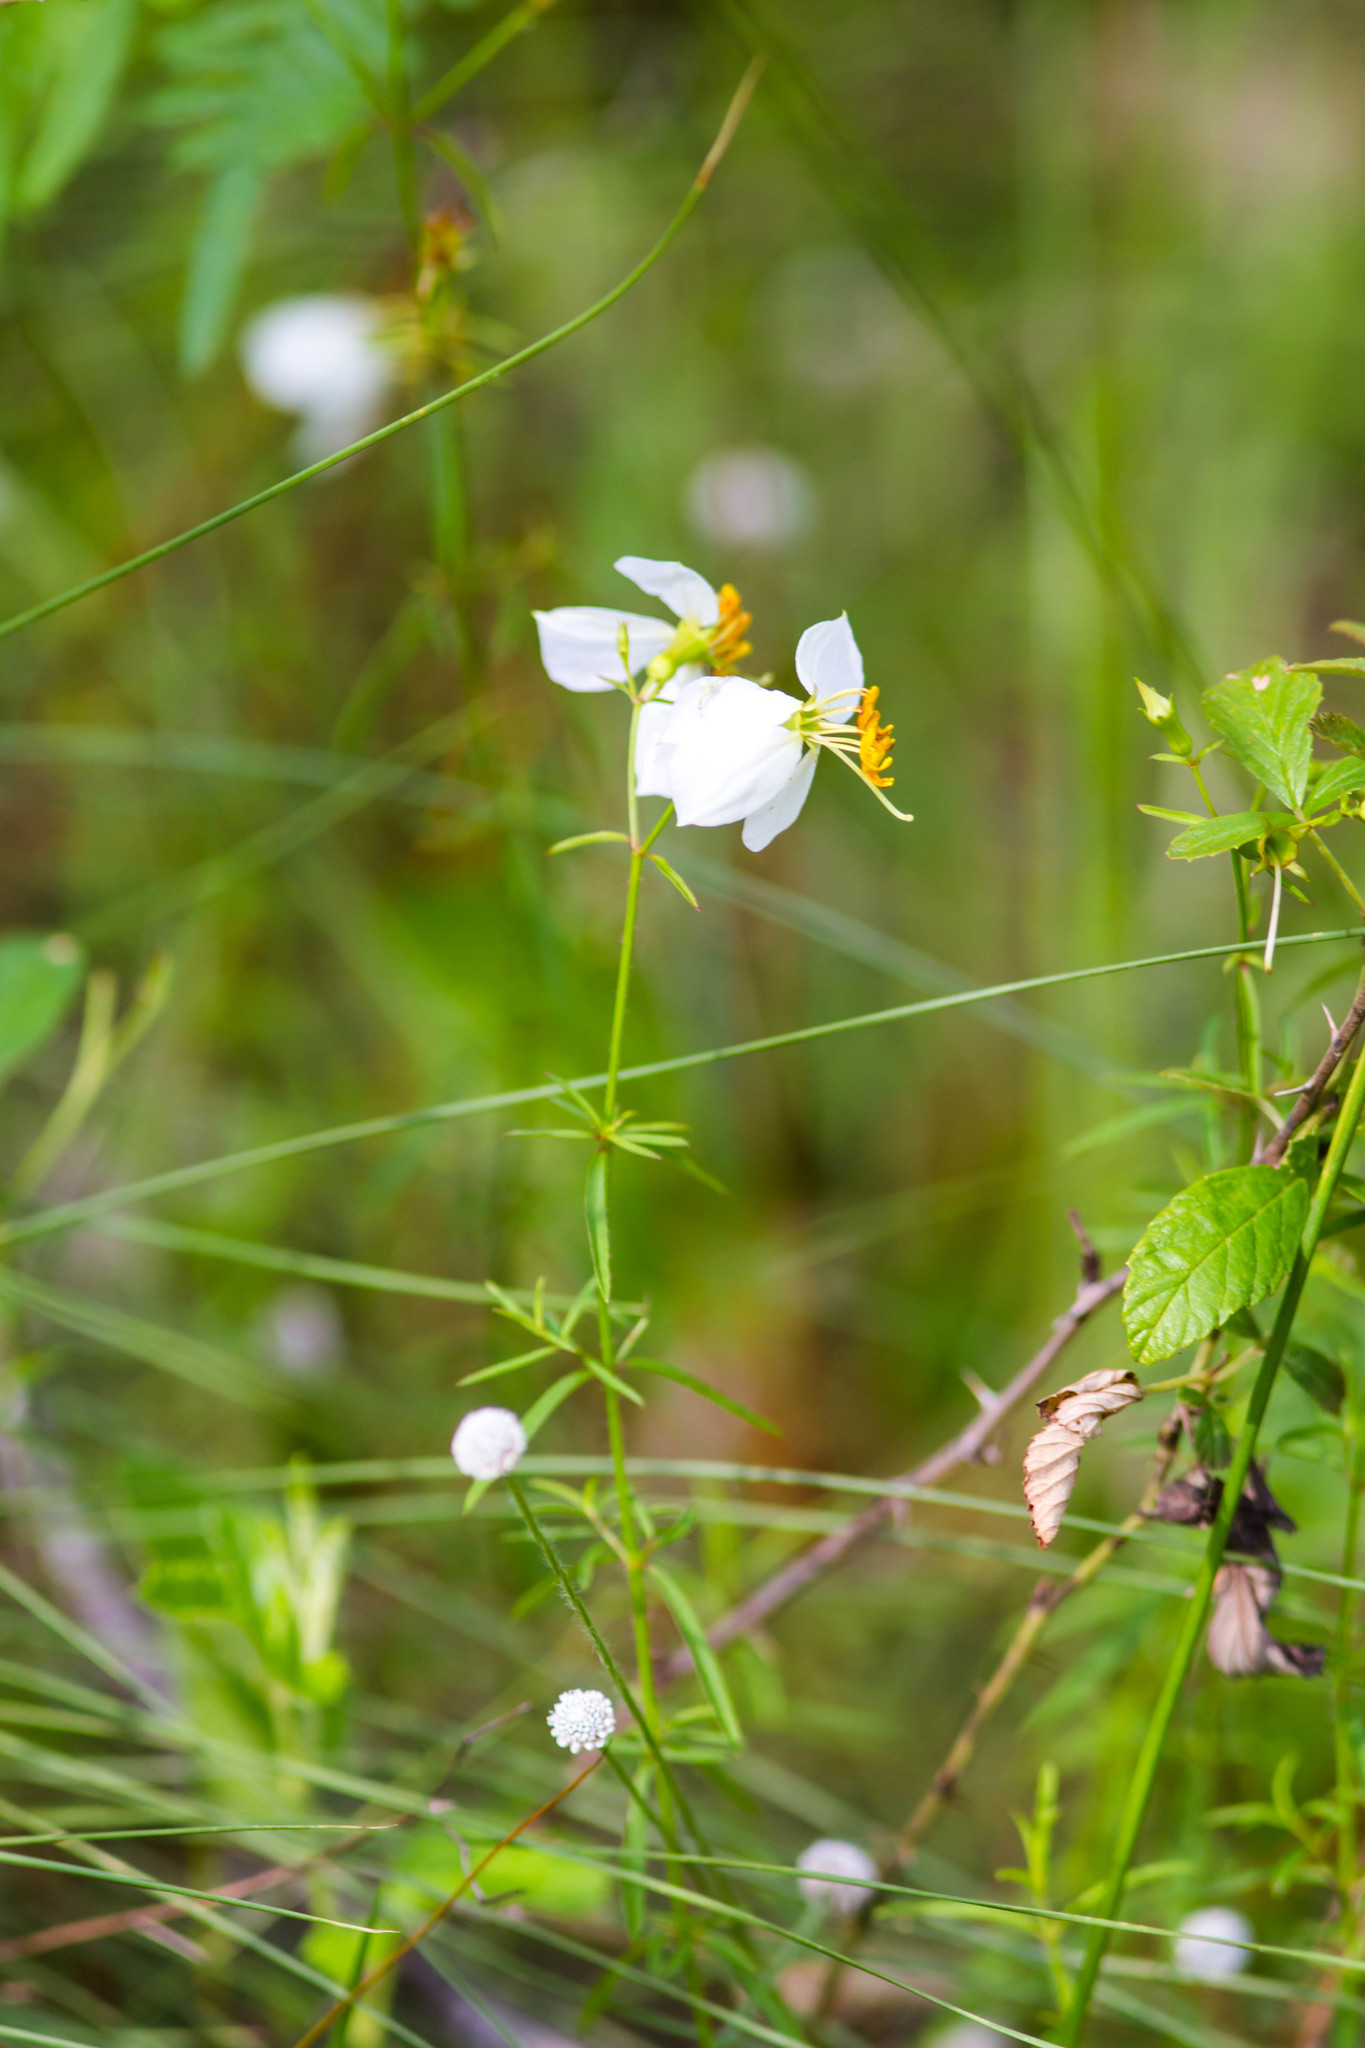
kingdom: Plantae
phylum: Tracheophyta
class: Magnoliopsida
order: Myrtales
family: Melastomataceae
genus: Rhexia
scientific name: Rhexia mariana
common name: Dull meadow-pitcher
